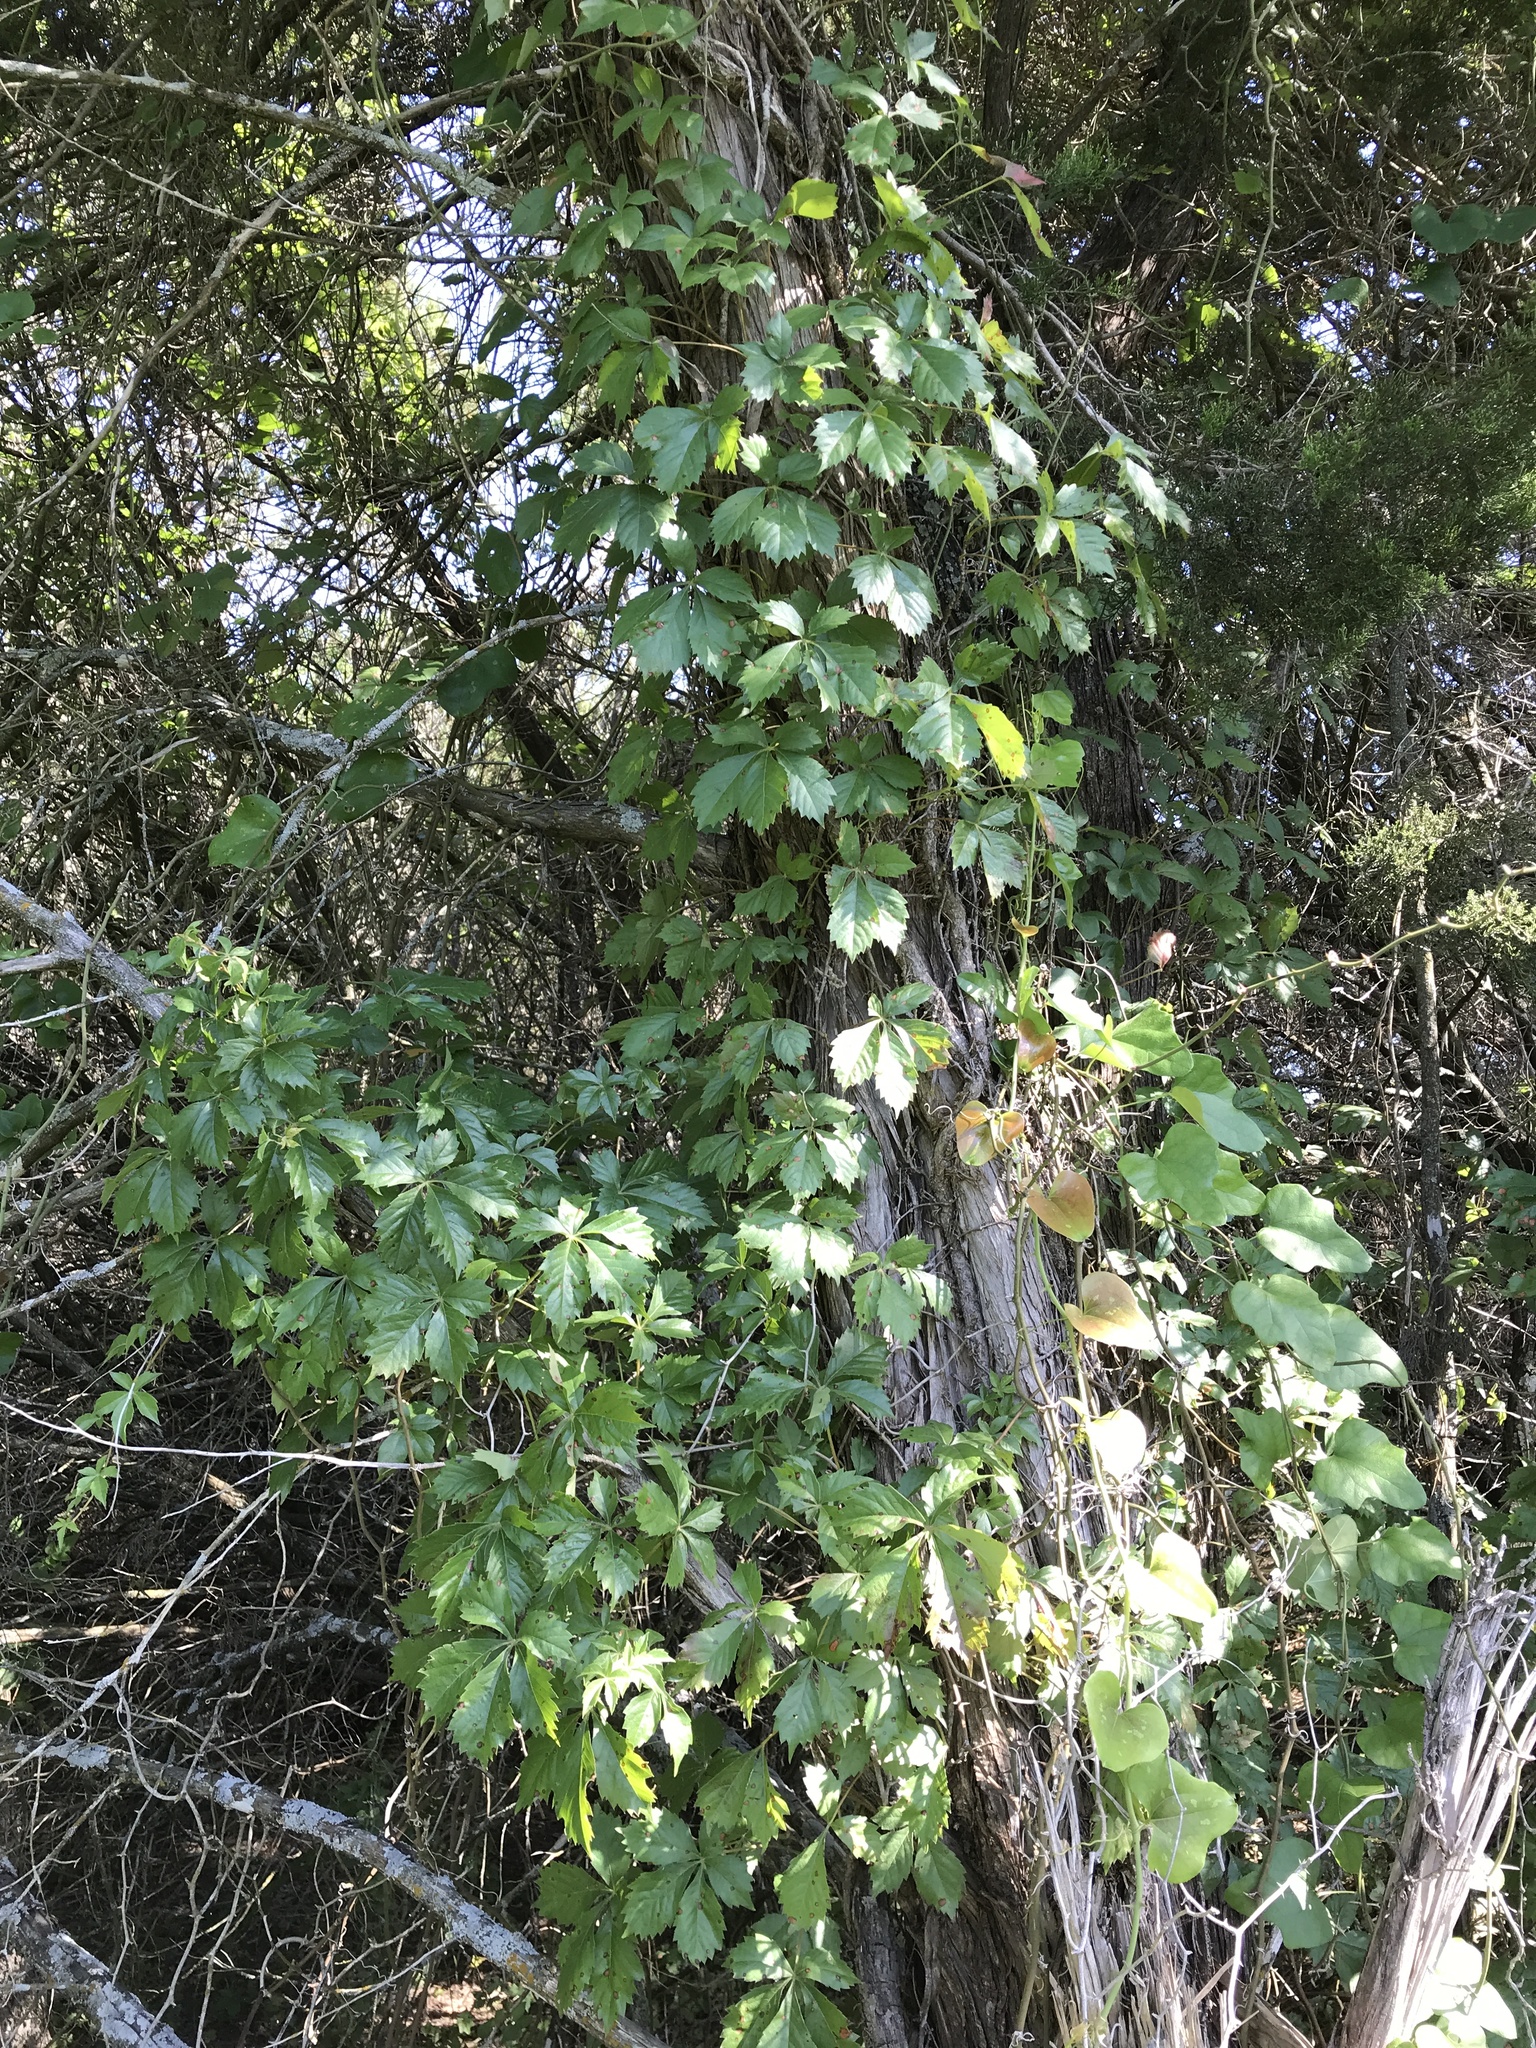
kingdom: Plantae
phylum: Tracheophyta
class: Magnoliopsida
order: Vitales
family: Vitaceae
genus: Parthenocissus
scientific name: Parthenocissus quinquefolia
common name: Virginia-creeper
